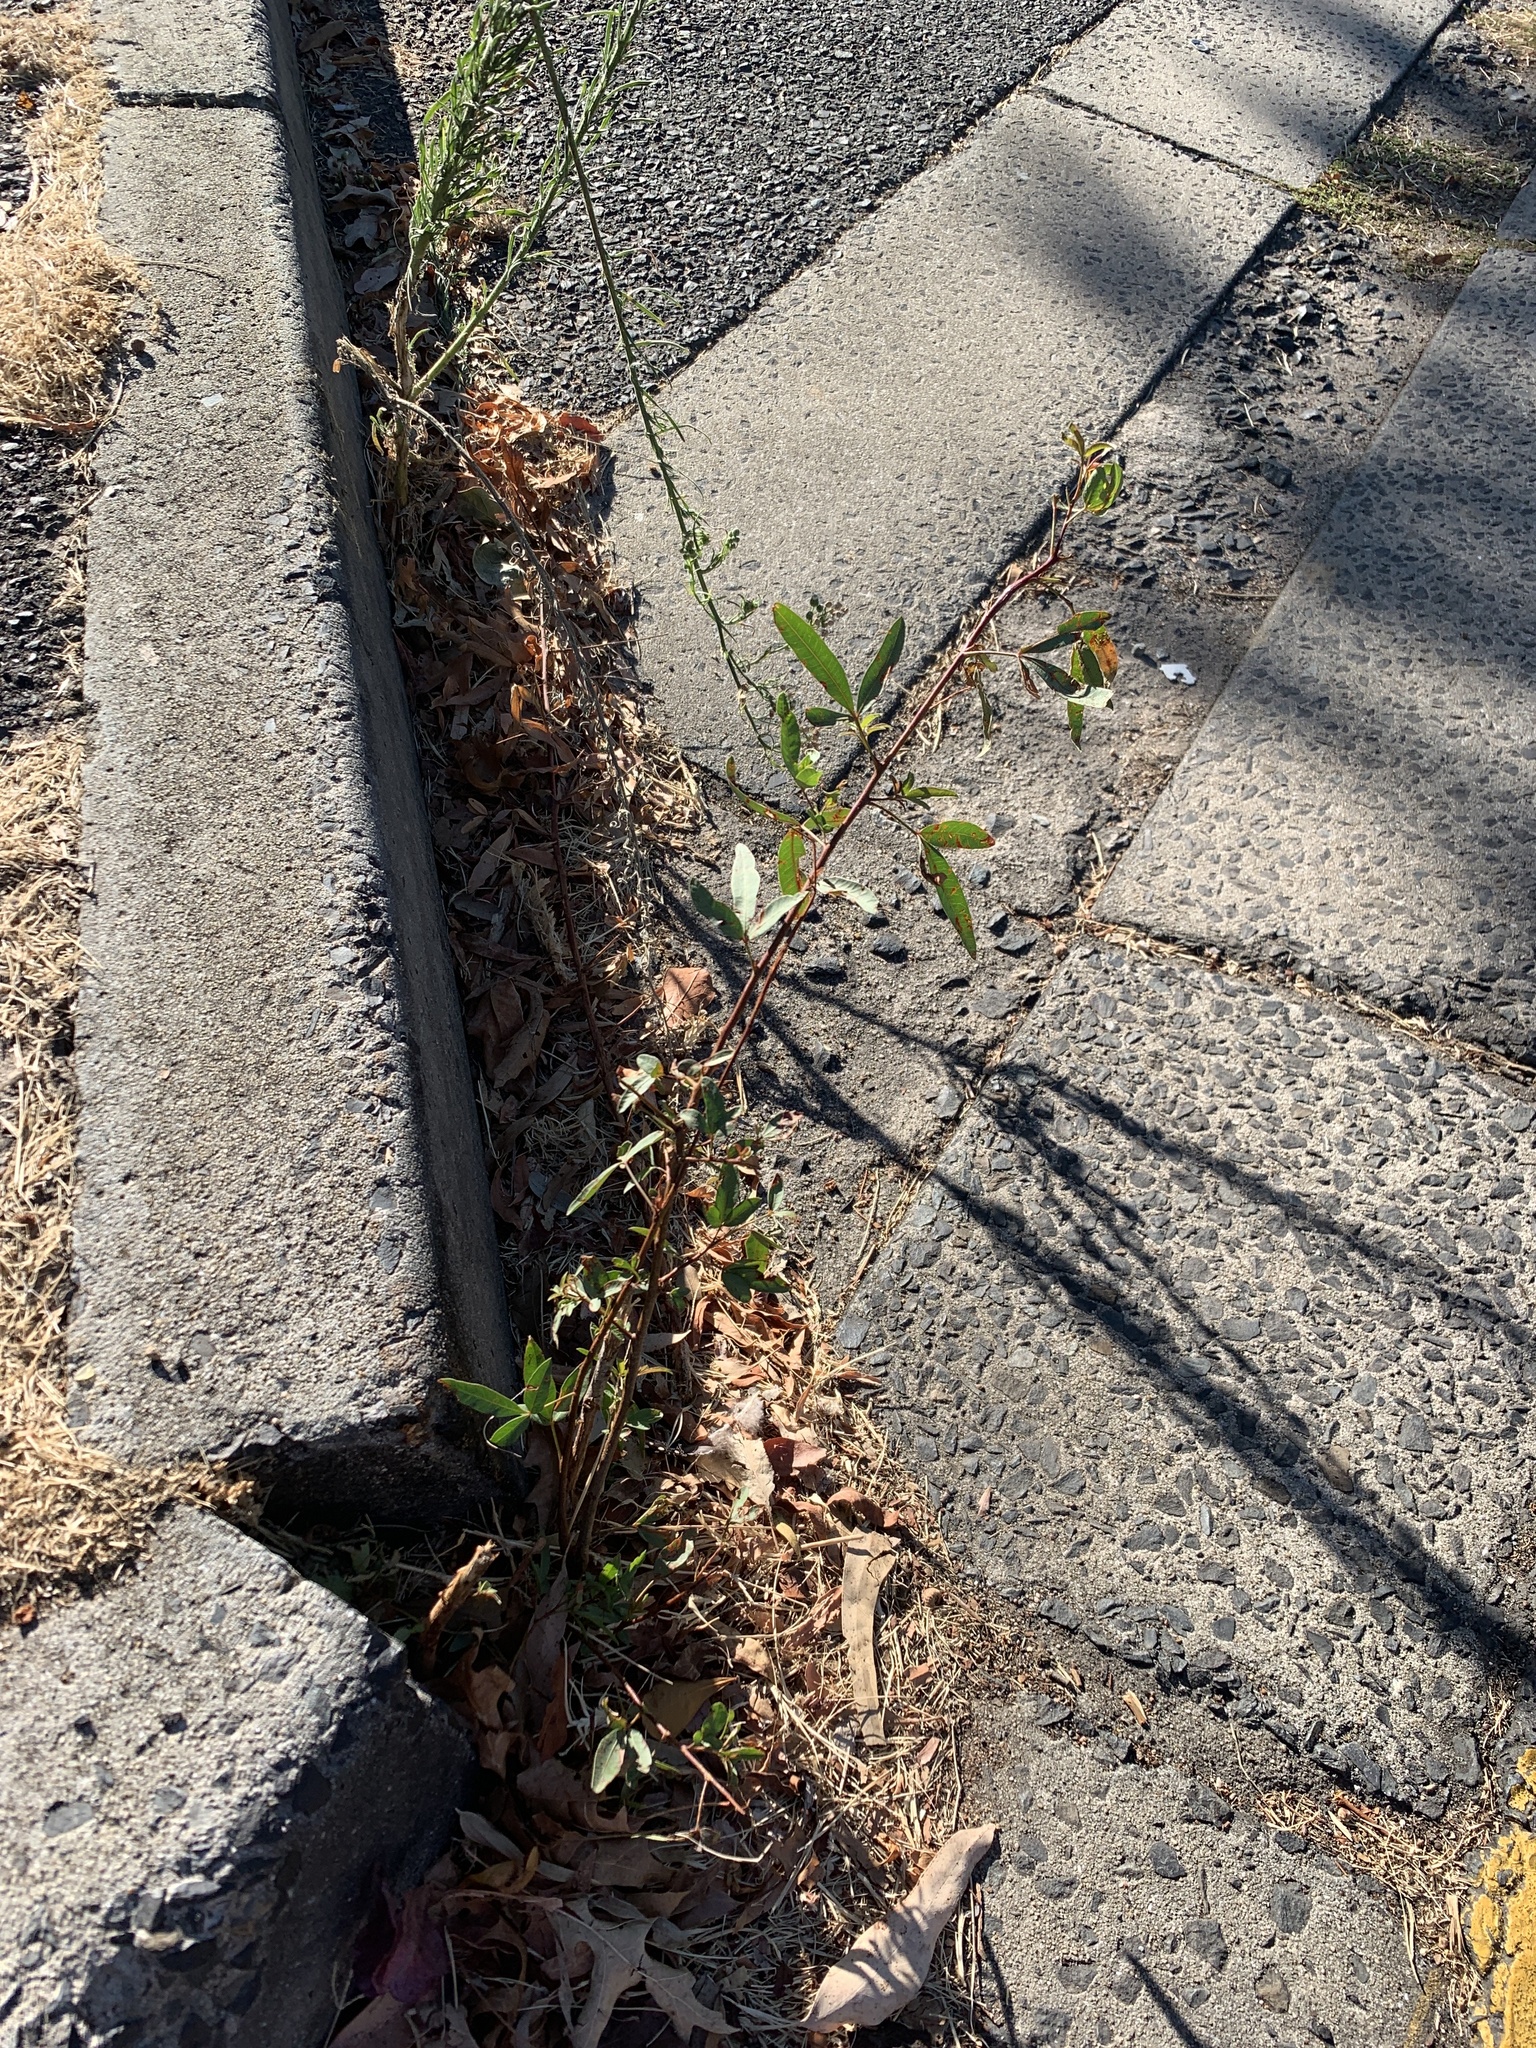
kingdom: Plantae
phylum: Tracheophyta
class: Magnoliopsida
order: Sapindales
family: Anacardiaceae
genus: Searsia
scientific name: Searsia pendulina
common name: White karee
